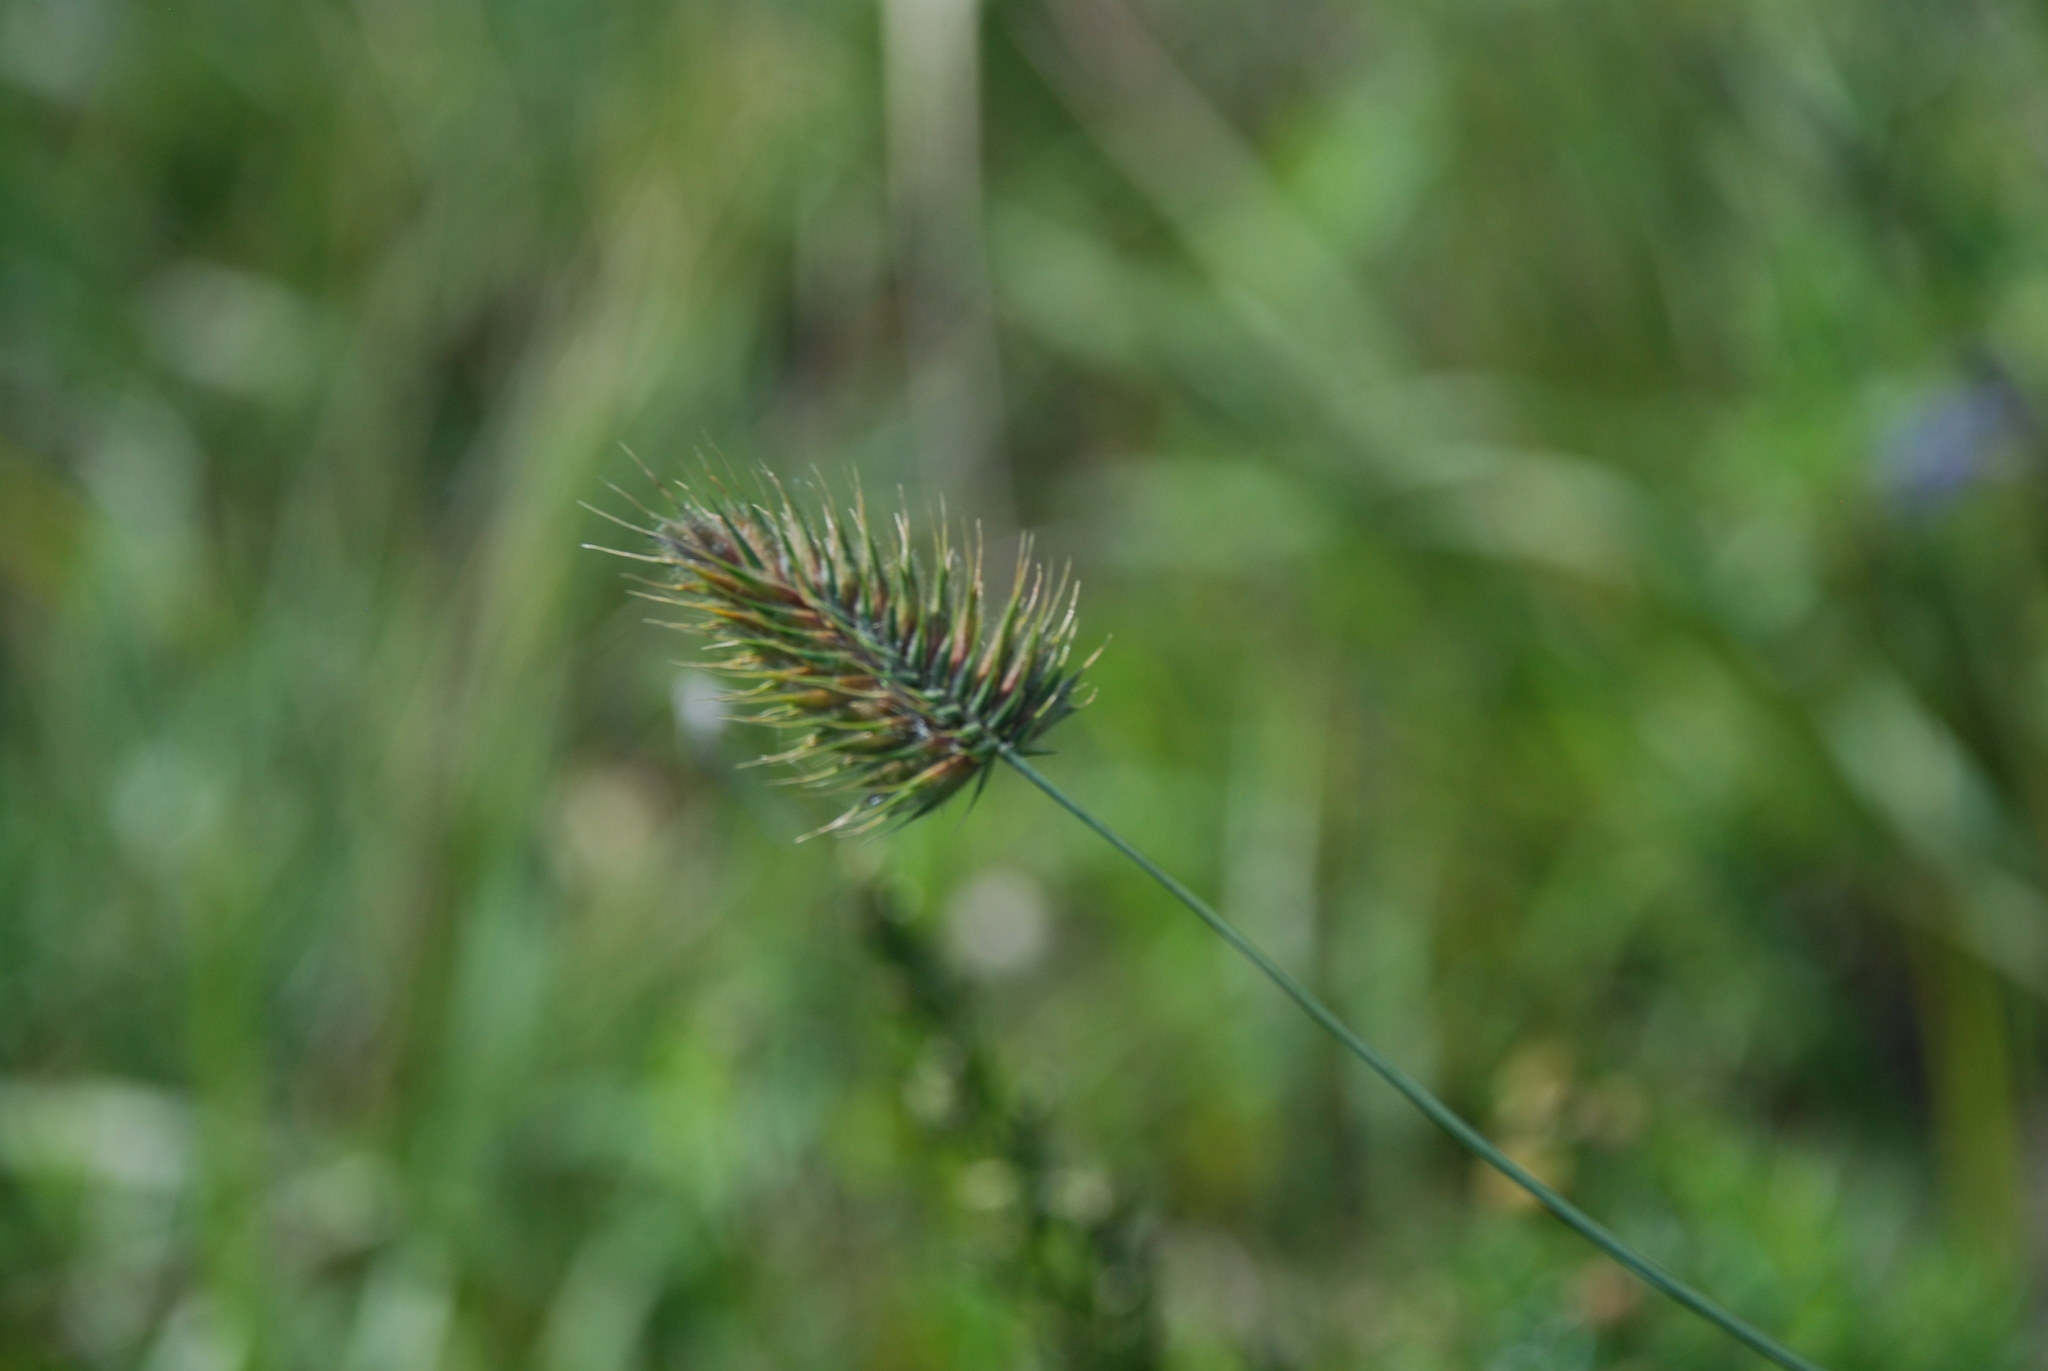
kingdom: Plantae
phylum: Tracheophyta
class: Liliopsida
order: Poales
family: Poaceae
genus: Agropyron
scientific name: Agropyron cristatum
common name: Crested wheatgrass
